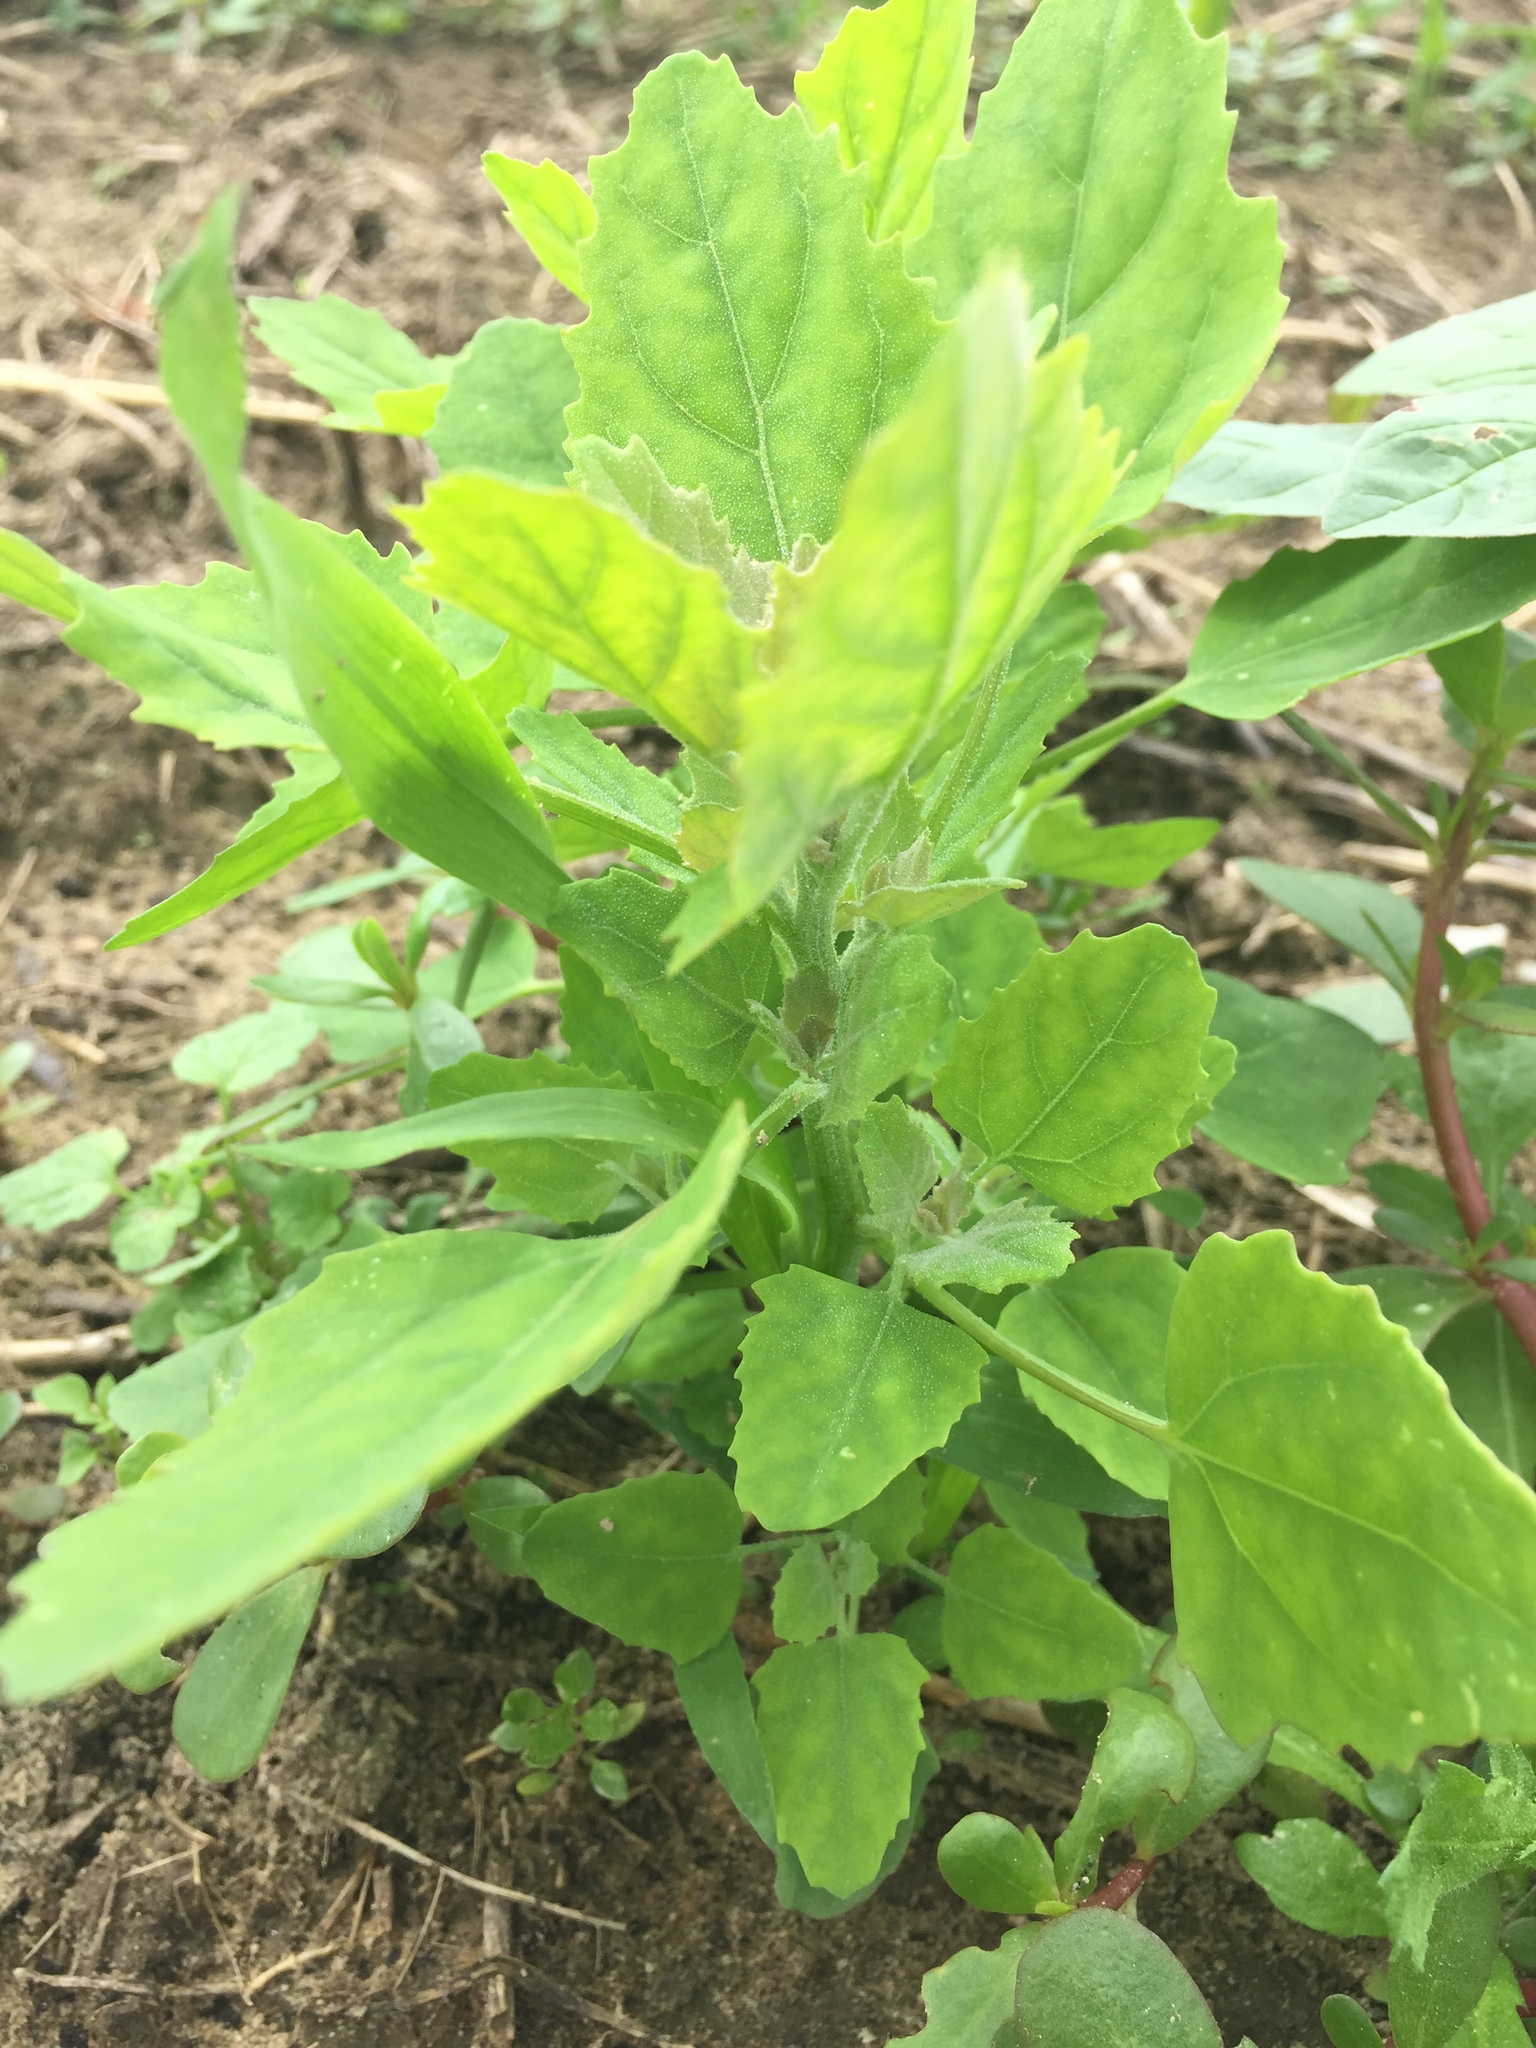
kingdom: Plantae
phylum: Tracheophyta
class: Magnoliopsida
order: Caryophyllales
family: Amaranthaceae
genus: Chenopodium
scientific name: Chenopodium album
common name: Fat-hen
